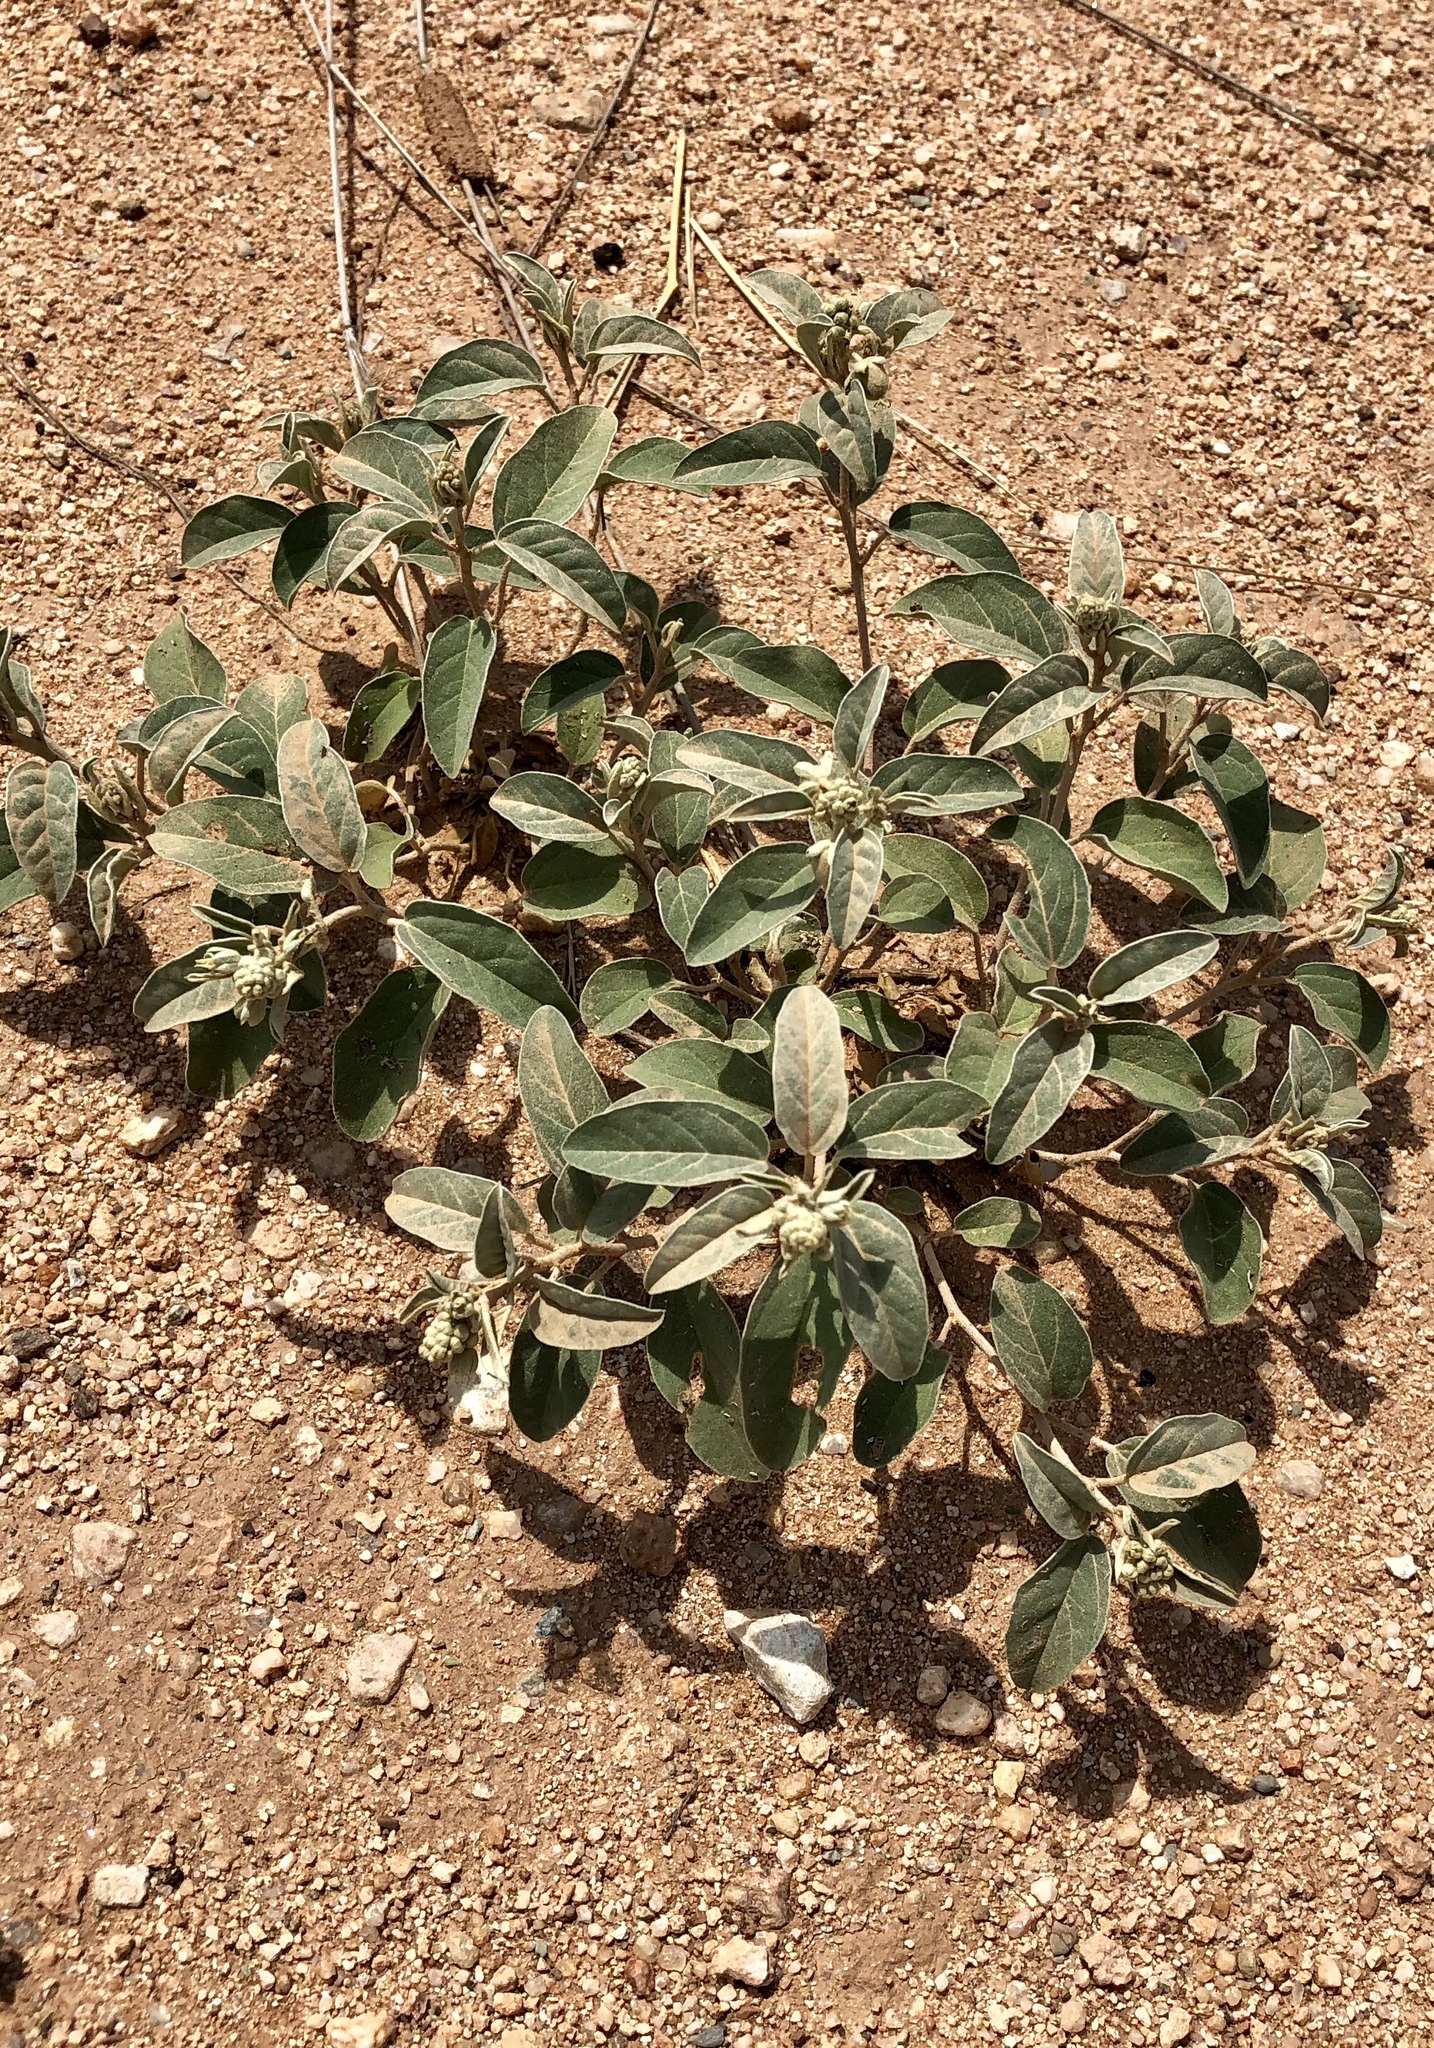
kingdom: Plantae
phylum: Tracheophyta
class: Magnoliopsida
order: Malpighiales
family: Euphorbiaceae
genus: Croton
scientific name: Croton pottsii
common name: Leatherweed
